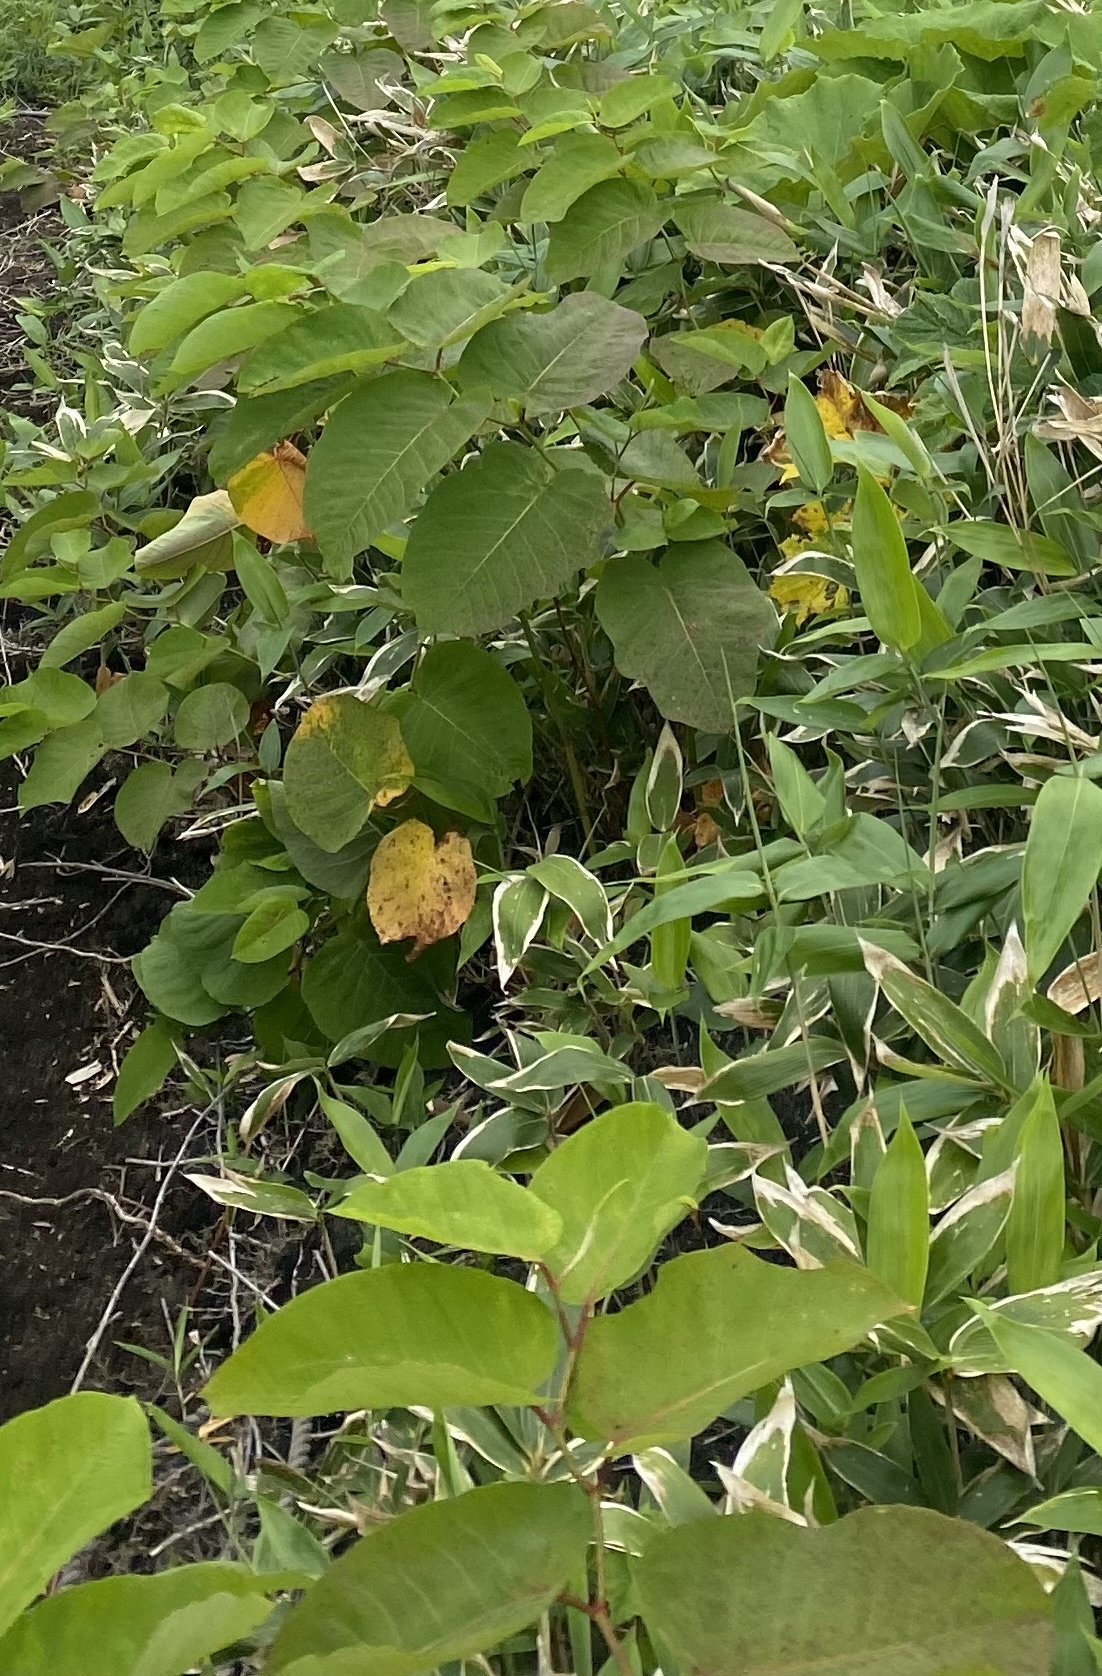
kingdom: Plantae
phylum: Tracheophyta
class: Magnoliopsida
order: Caryophyllales
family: Polygonaceae
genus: Reynoutria
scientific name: Reynoutria sachalinensis
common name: Giant knotweed
